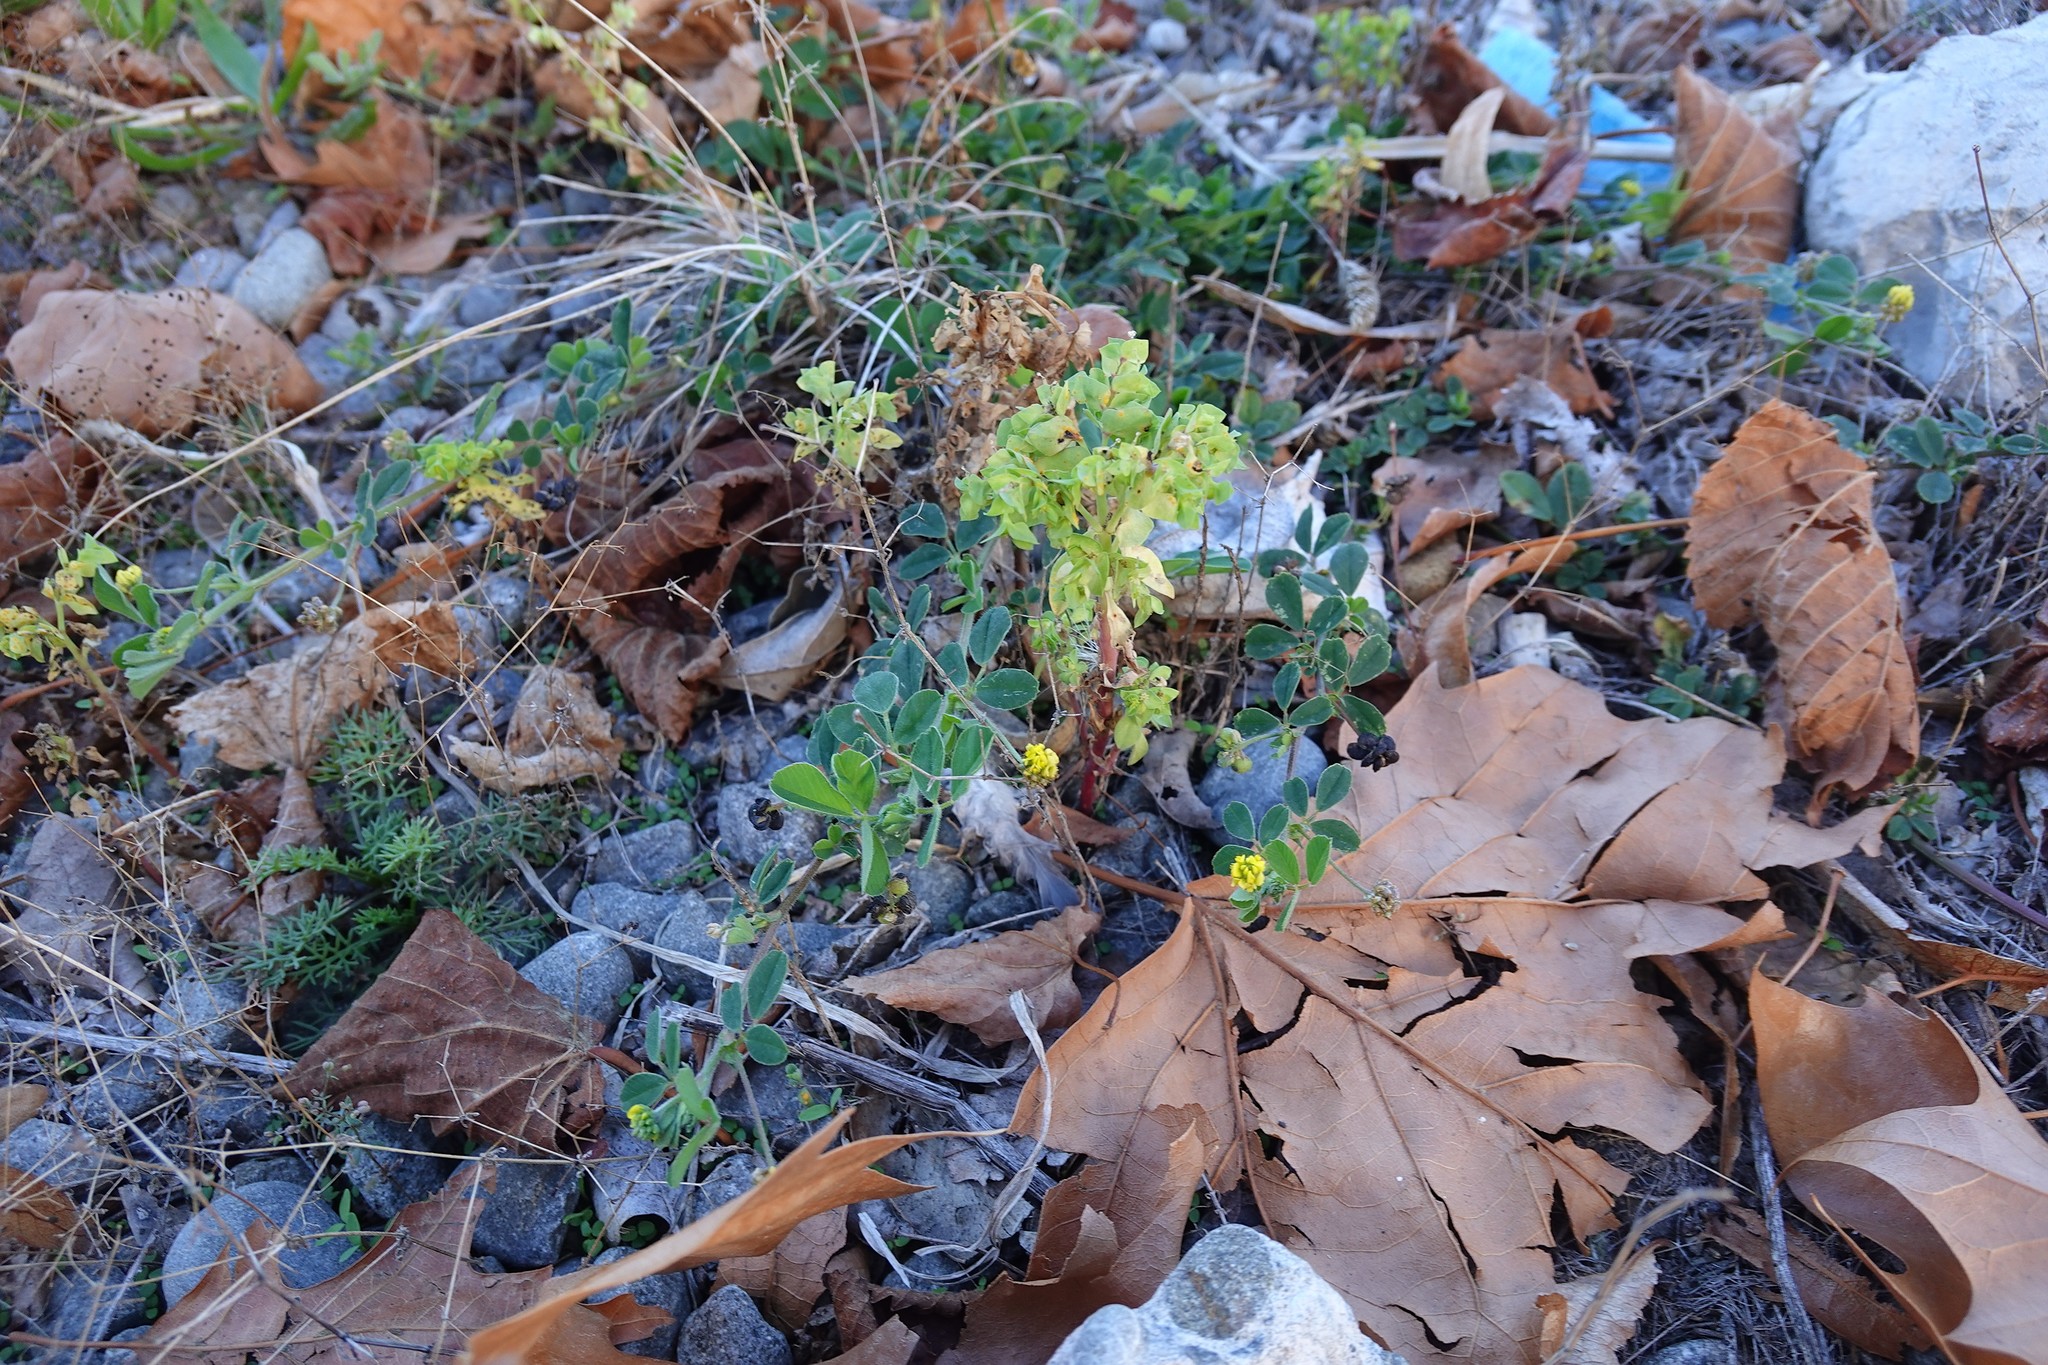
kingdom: Plantae
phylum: Tracheophyta
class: Magnoliopsida
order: Malpighiales
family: Euphorbiaceae
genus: Euphorbia
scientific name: Euphorbia peplus
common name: Petty spurge
